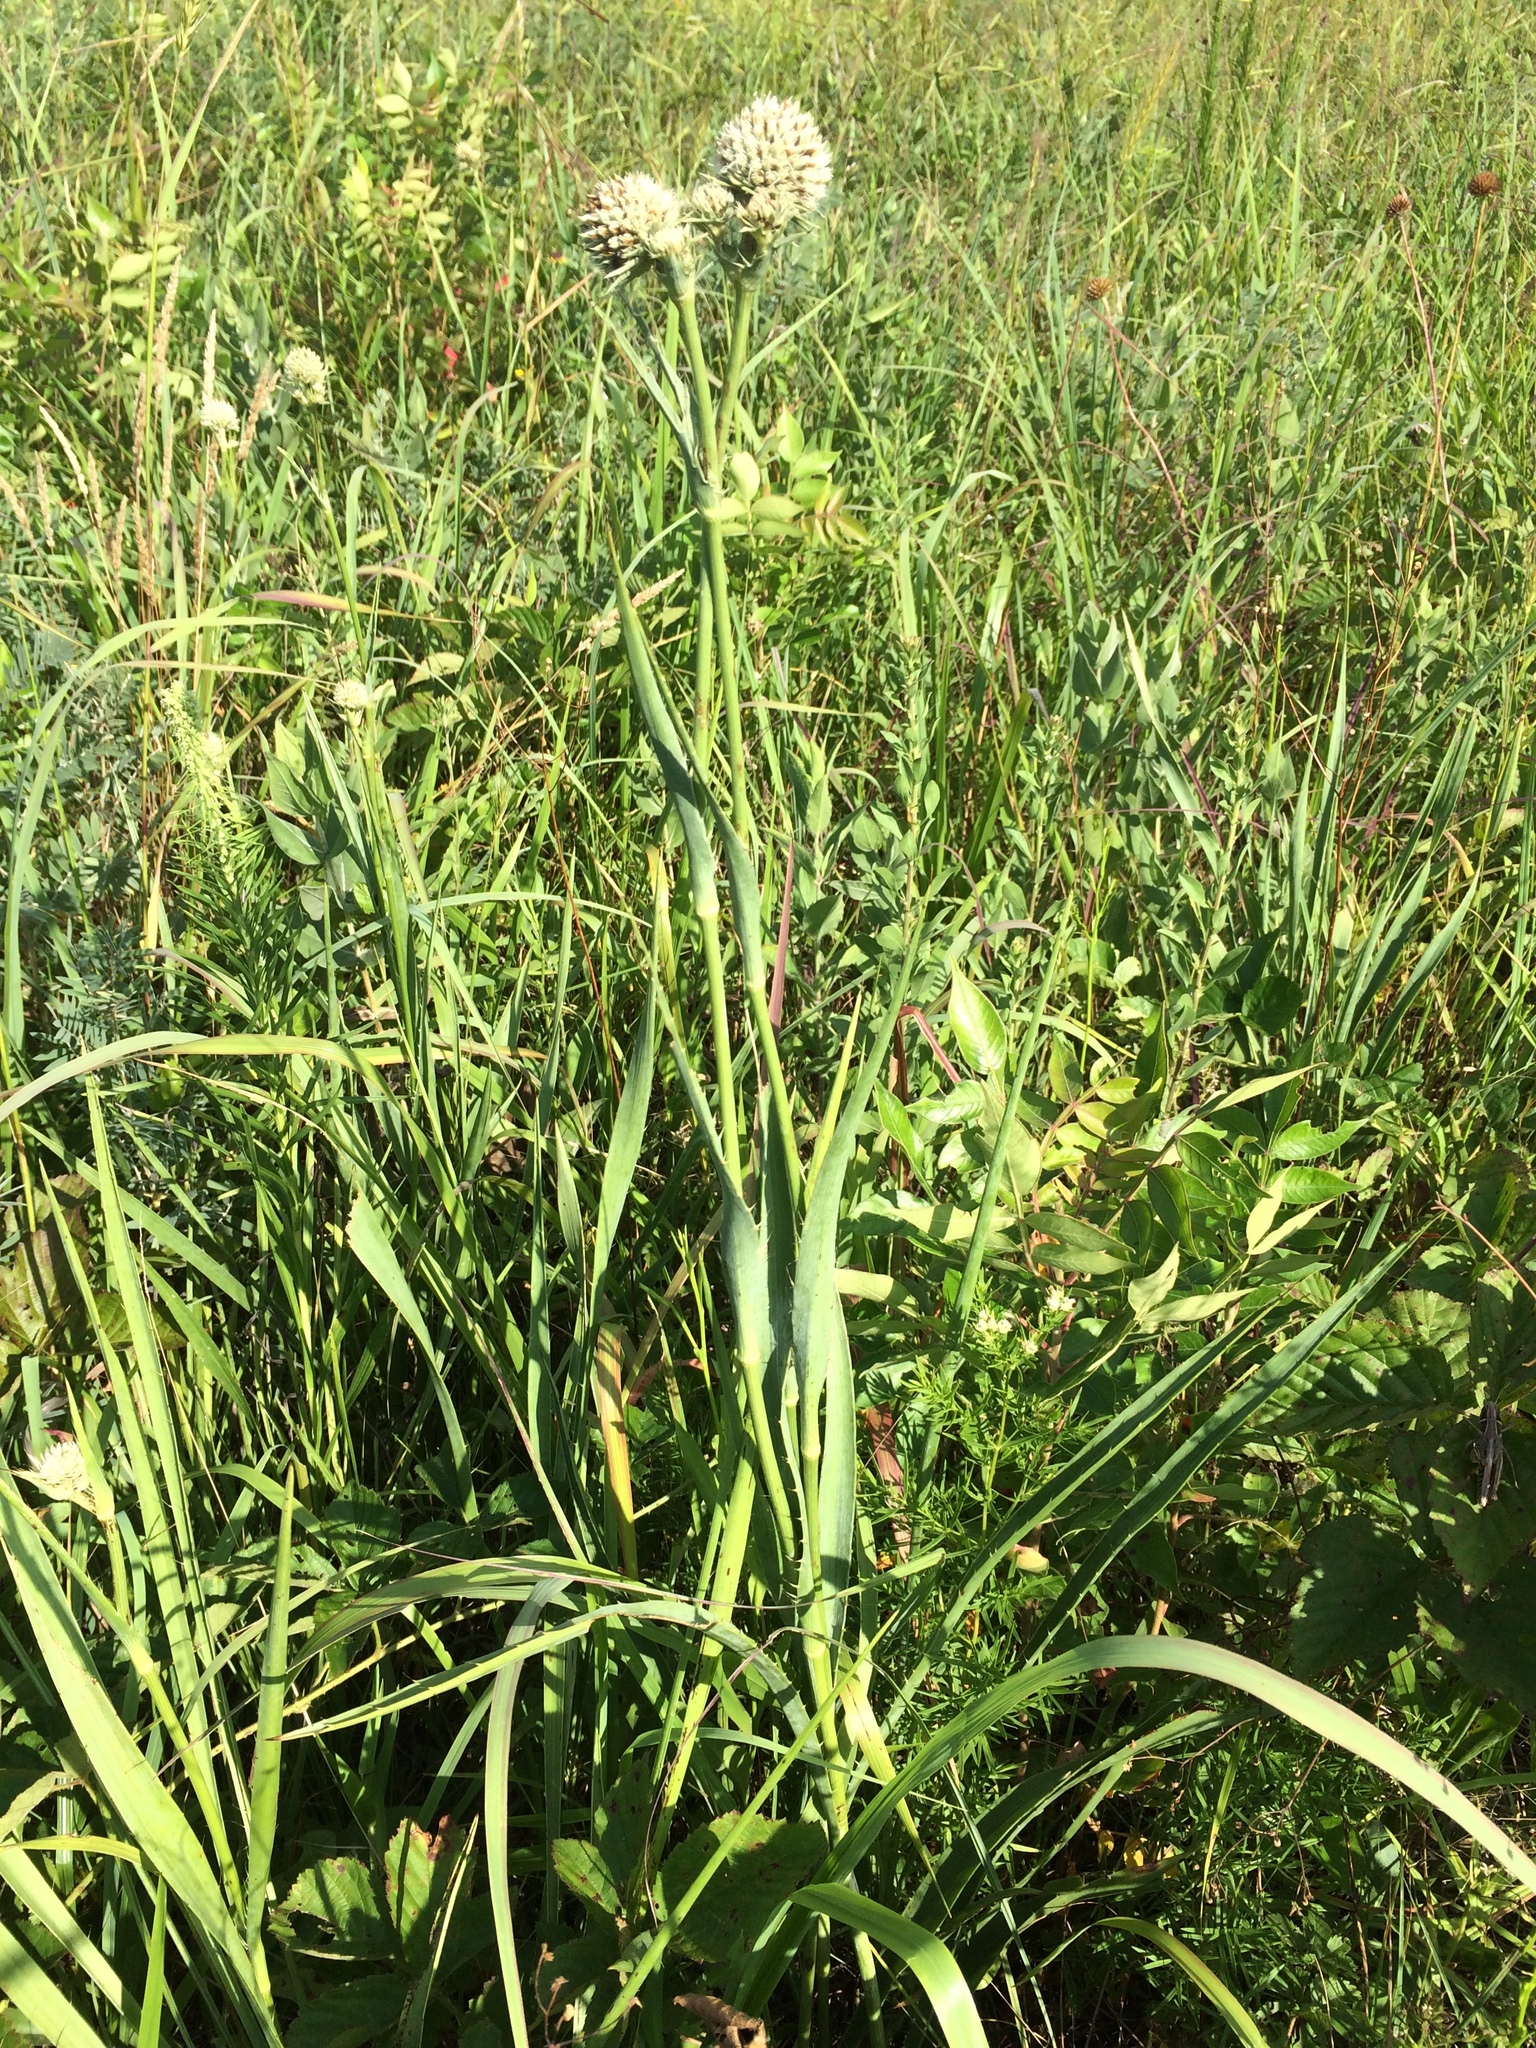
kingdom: Plantae
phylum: Tracheophyta
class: Magnoliopsida
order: Apiales
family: Apiaceae
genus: Eryngium
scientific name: Eryngium yuccifolium
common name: Button eryngo
